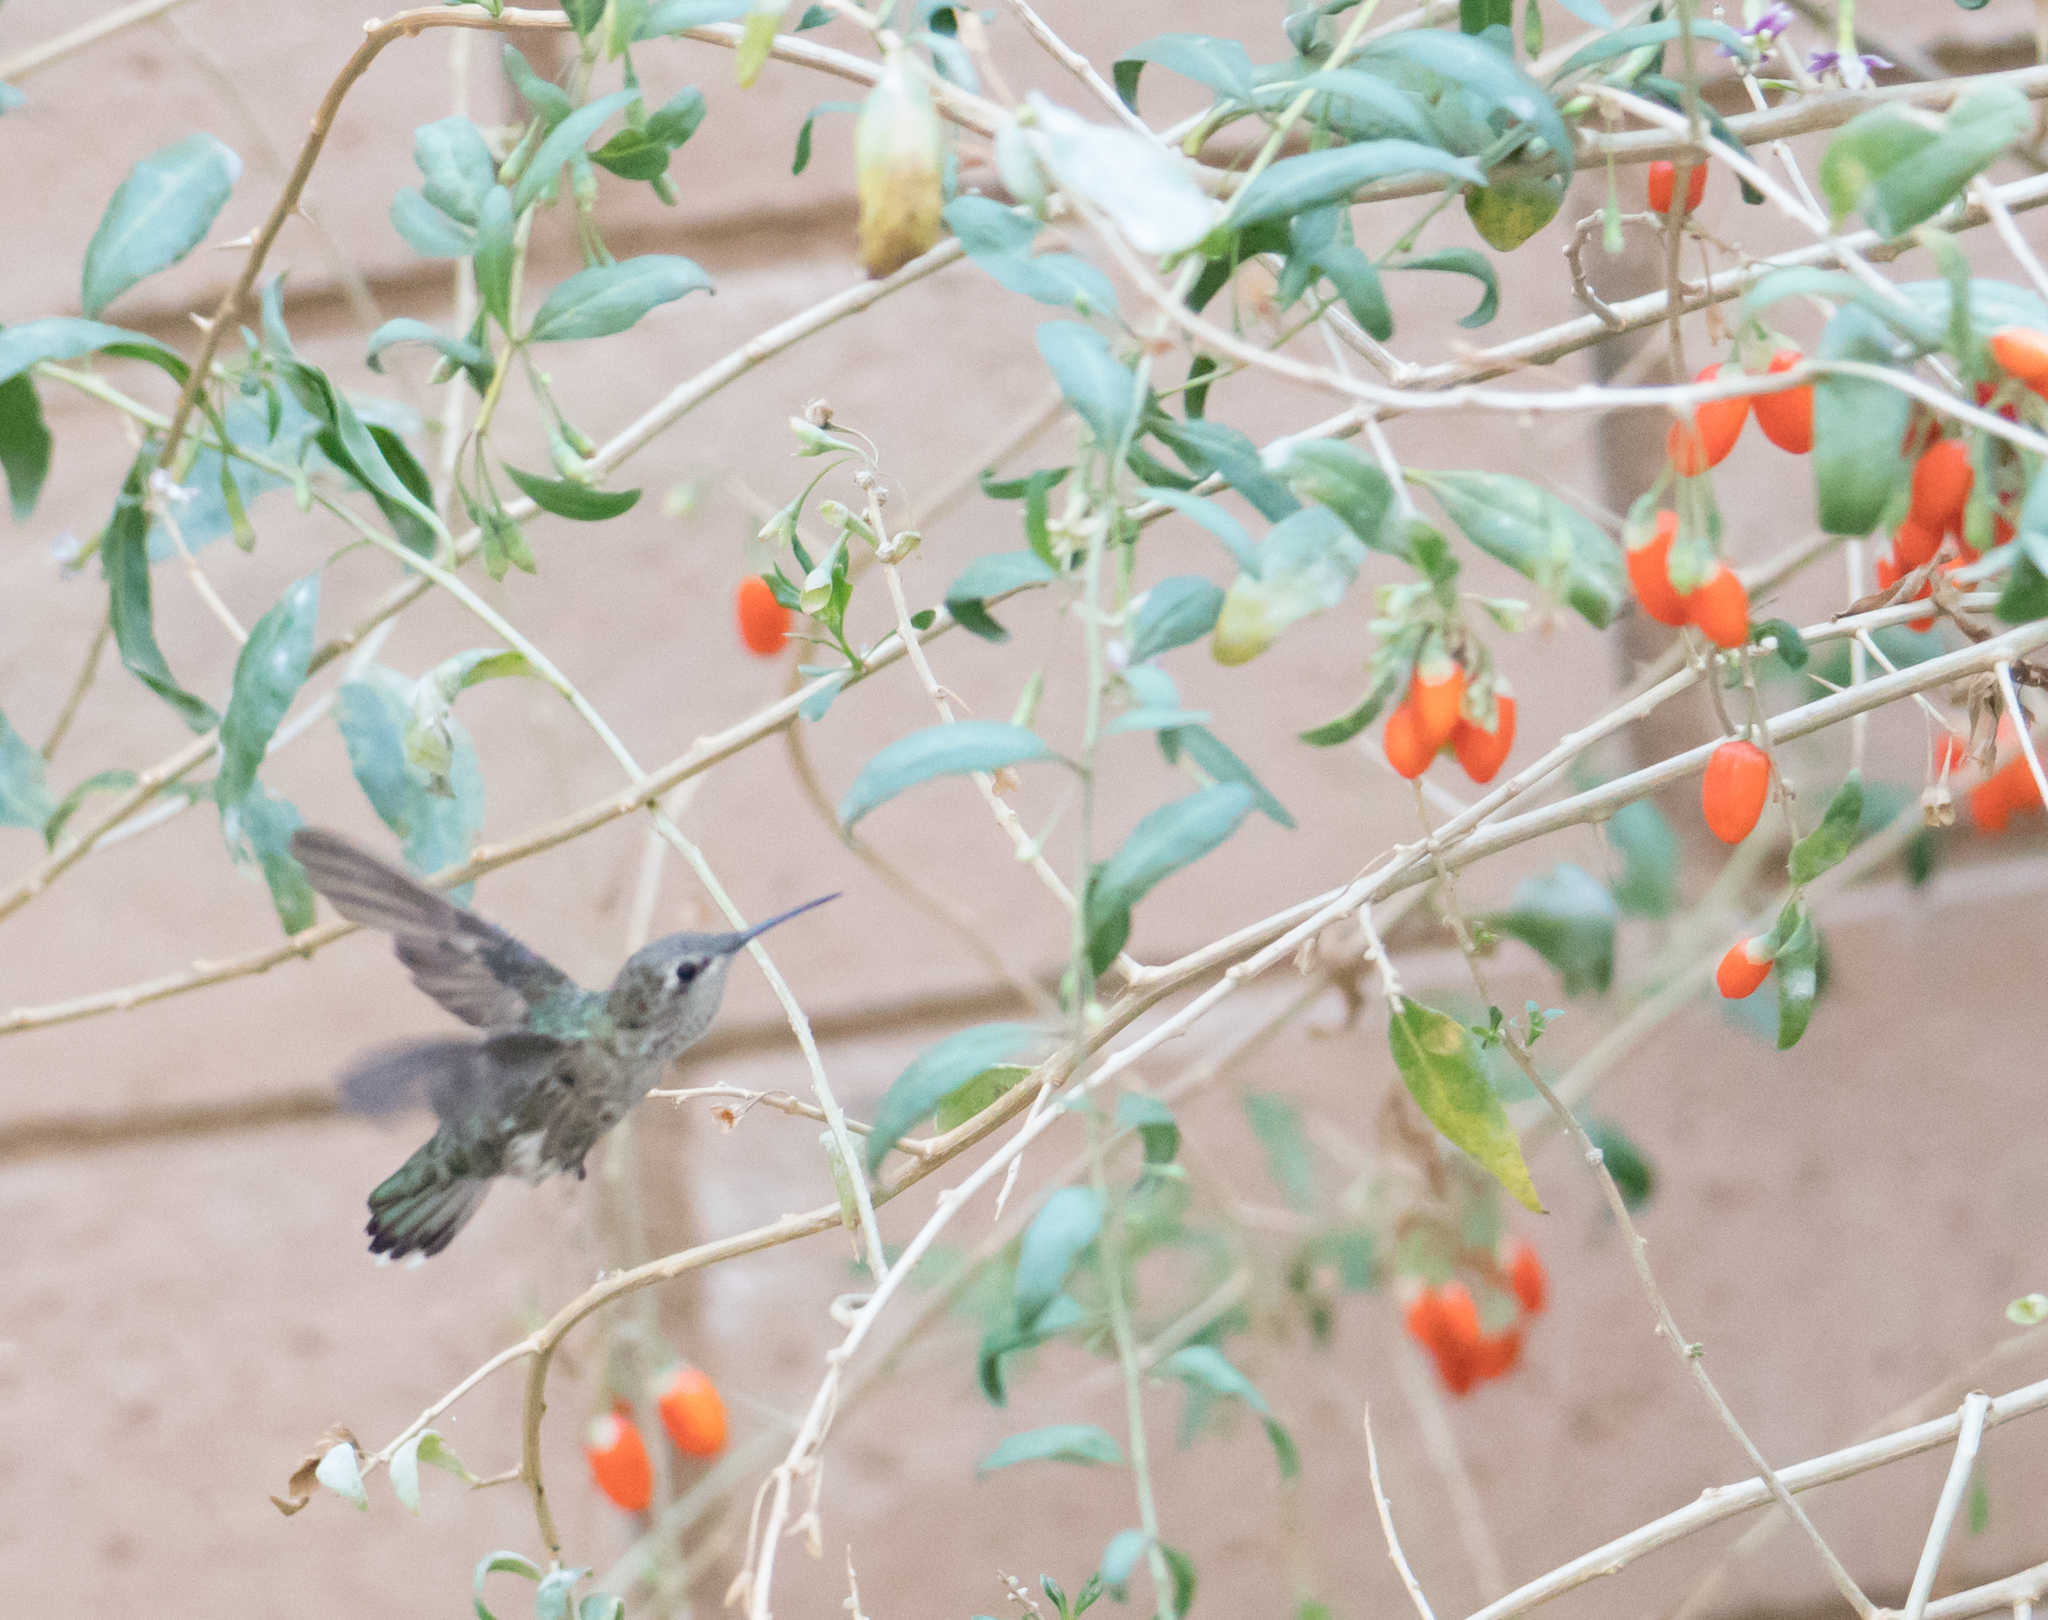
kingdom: Animalia
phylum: Chordata
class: Aves
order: Apodiformes
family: Trochilidae
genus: Calypte
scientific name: Calypte anna
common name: Anna's hummingbird
